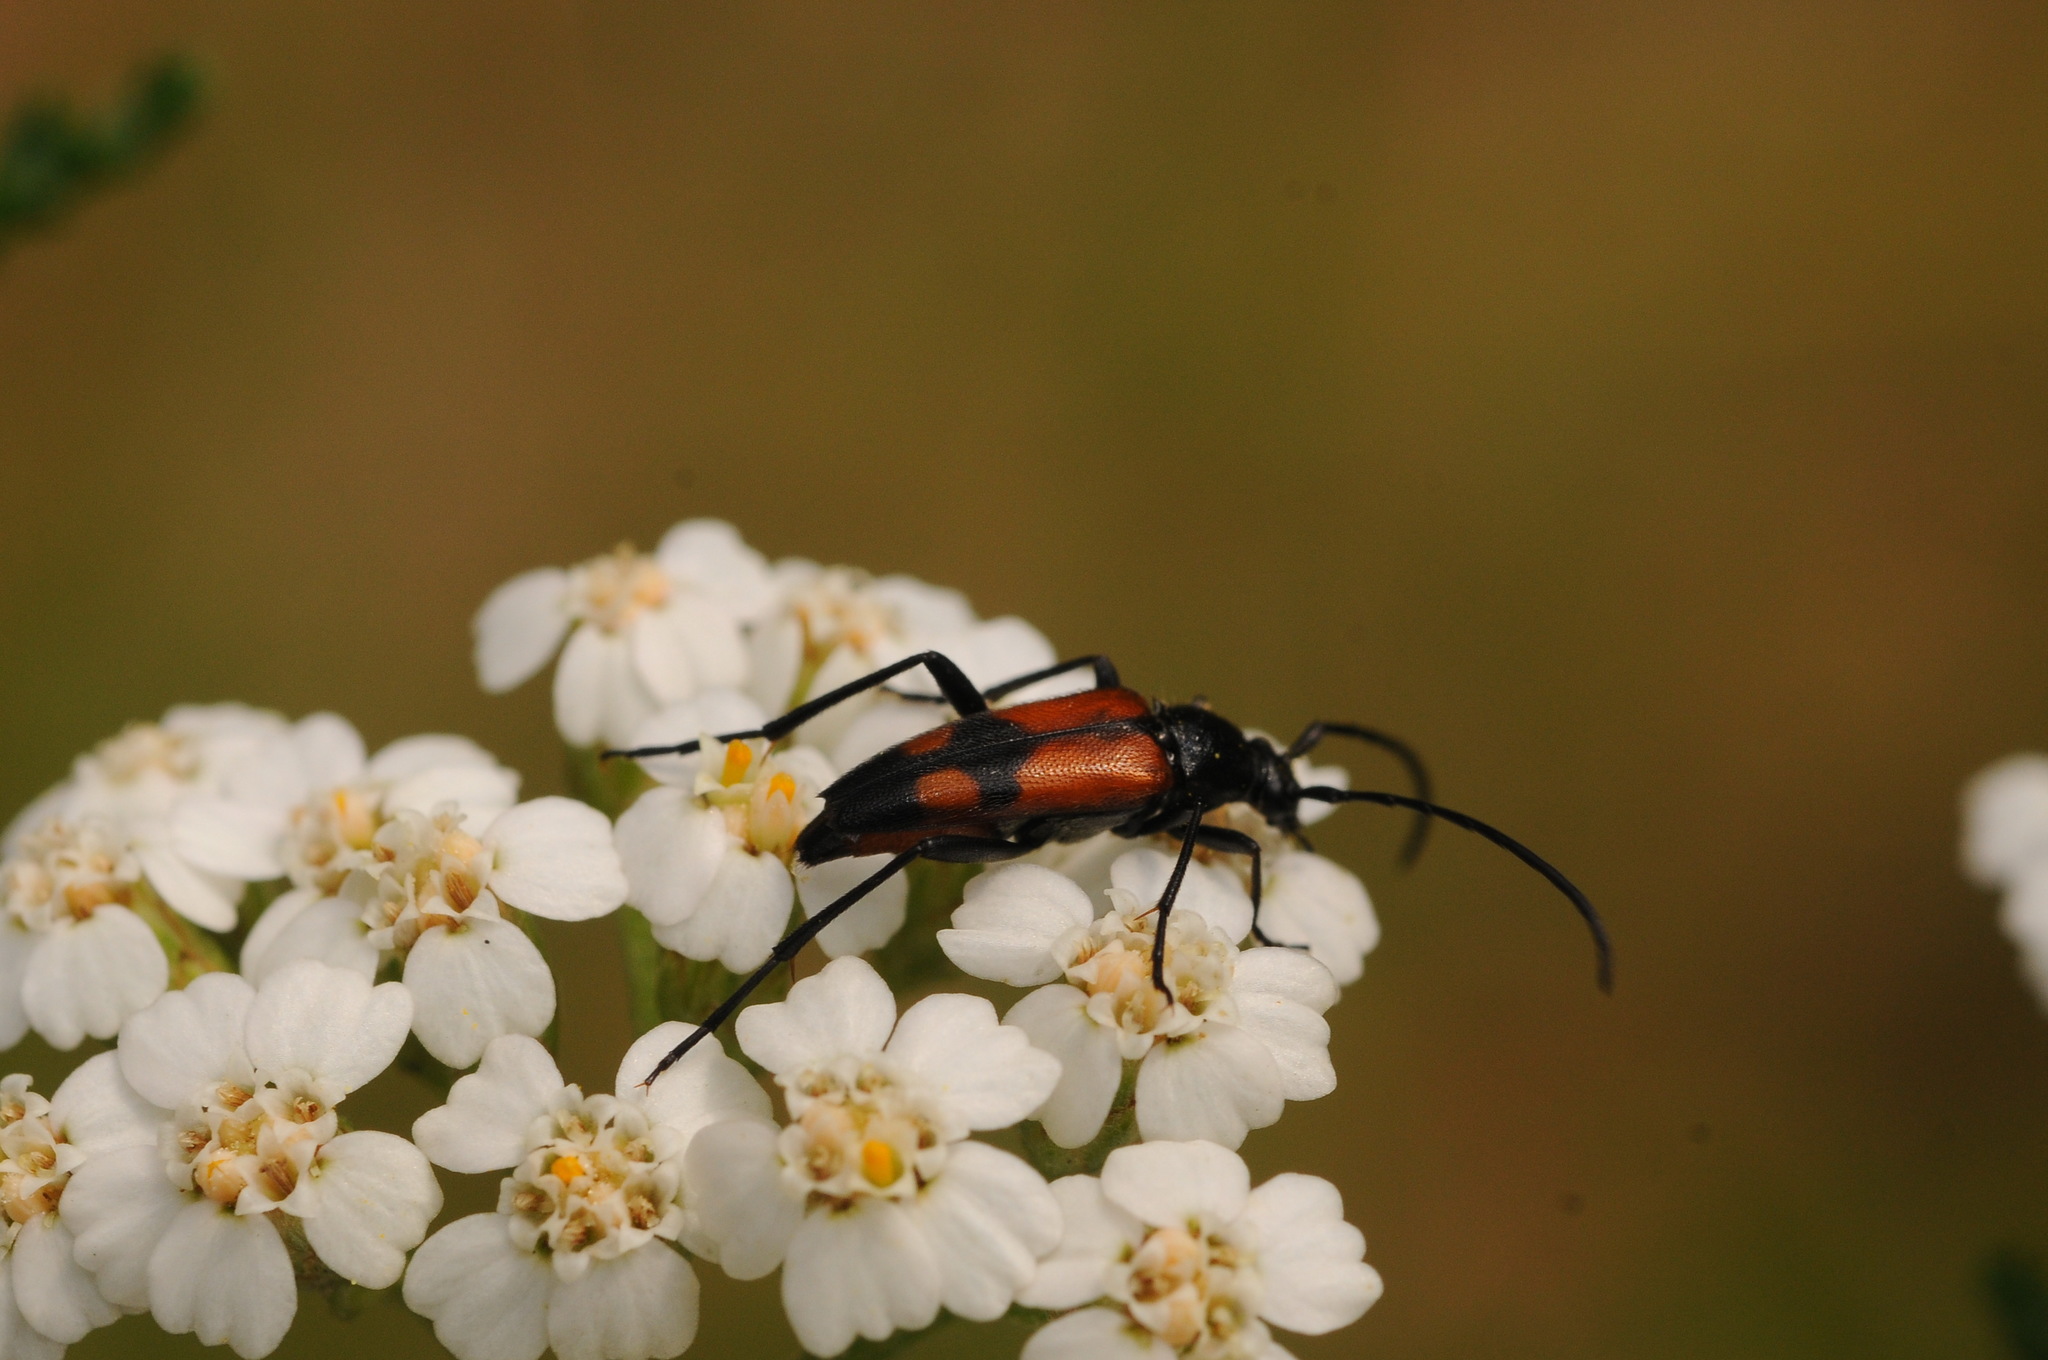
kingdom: Animalia
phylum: Arthropoda
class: Insecta
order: Coleoptera
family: Cerambycidae
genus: Stenurella
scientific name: Stenurella bifasciata
